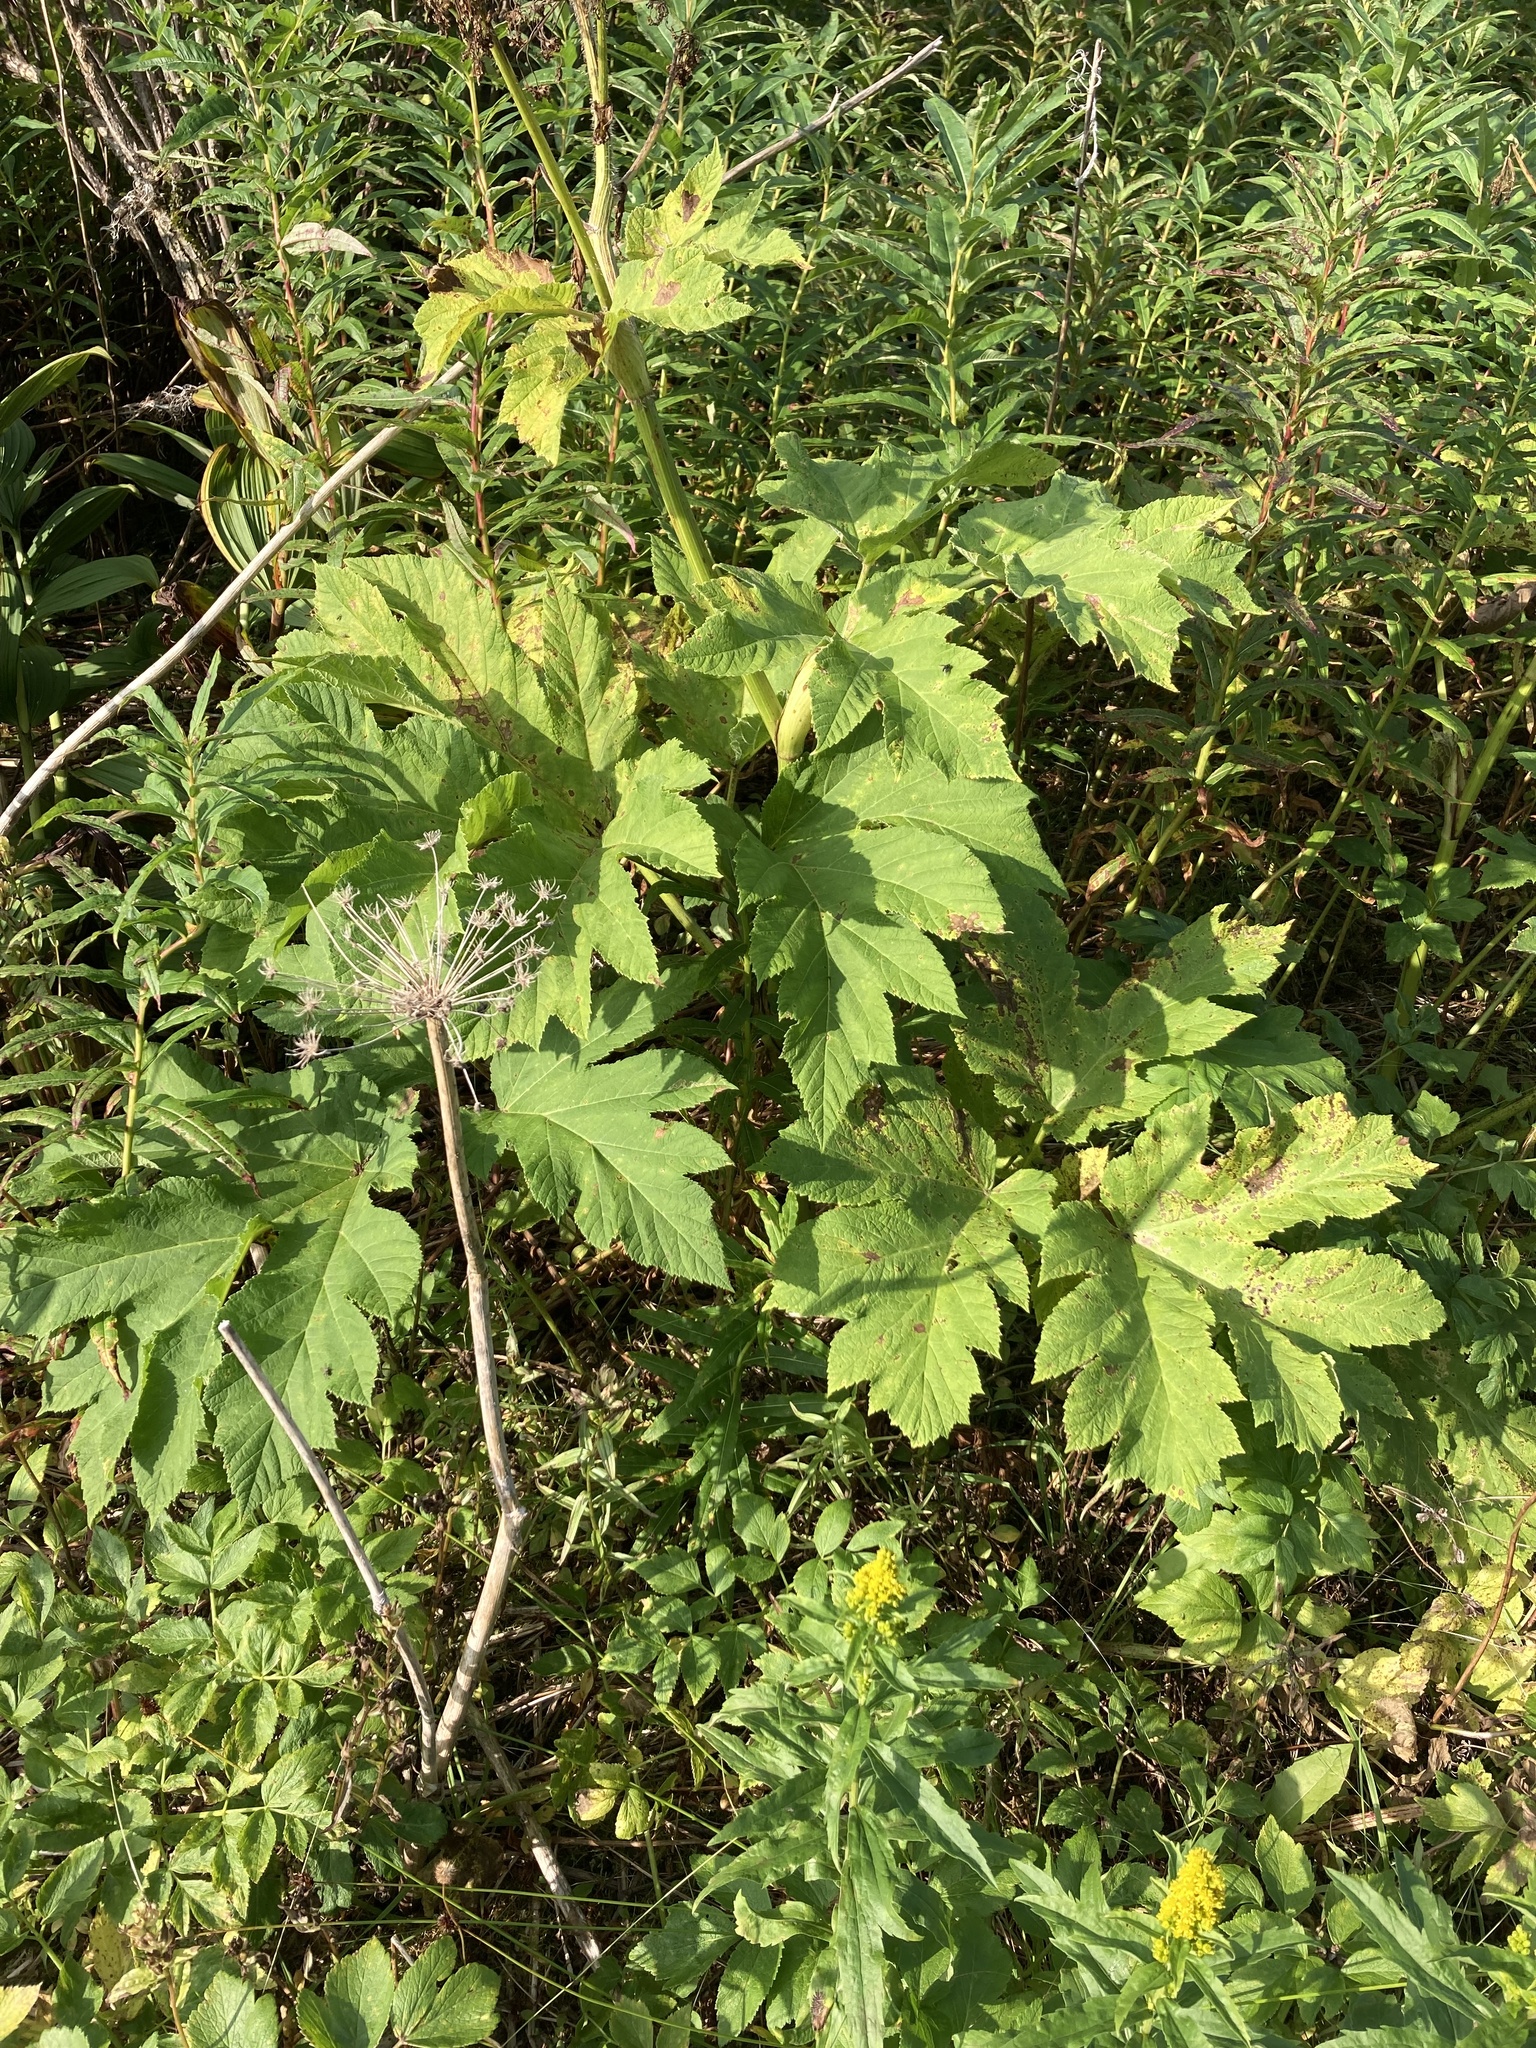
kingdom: Plantae
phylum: Tracheophyta
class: Magnoliopsida
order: Apiales
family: Apiaceae
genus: Heracleum
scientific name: Heracleum maximum
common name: American cow parsnip
